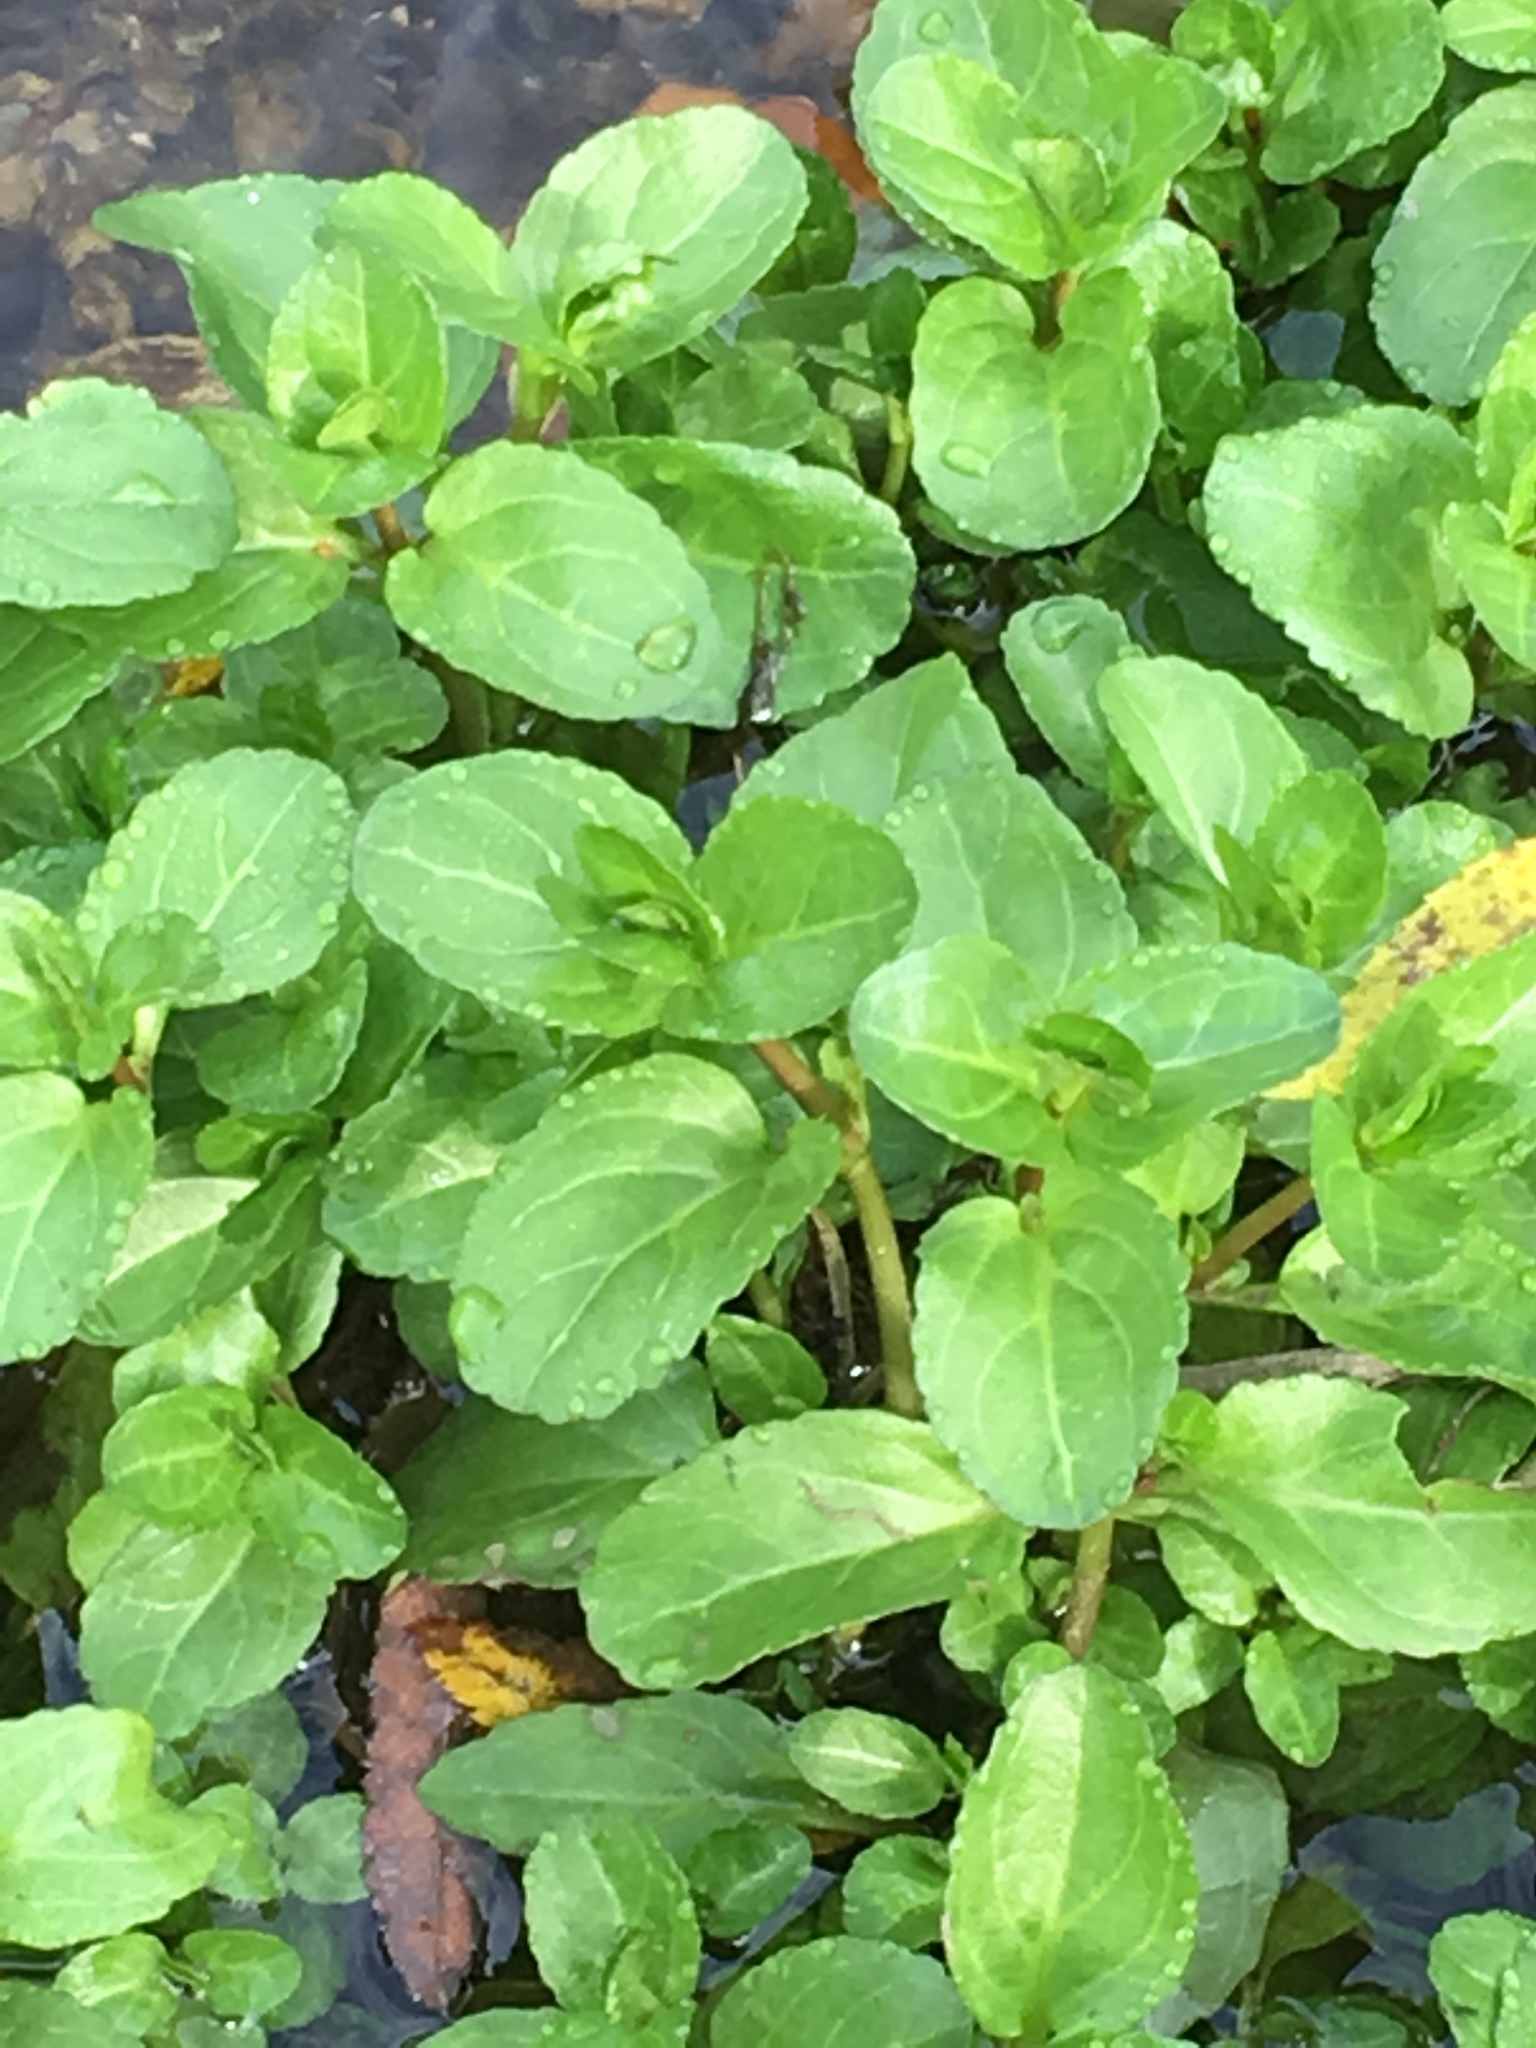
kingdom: Plantae
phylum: Tracheophyta
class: Magnoliopsida
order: Lamiales
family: Plantaginaceae
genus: Veronica
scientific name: Veronica beccabunga
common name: Brooklime
